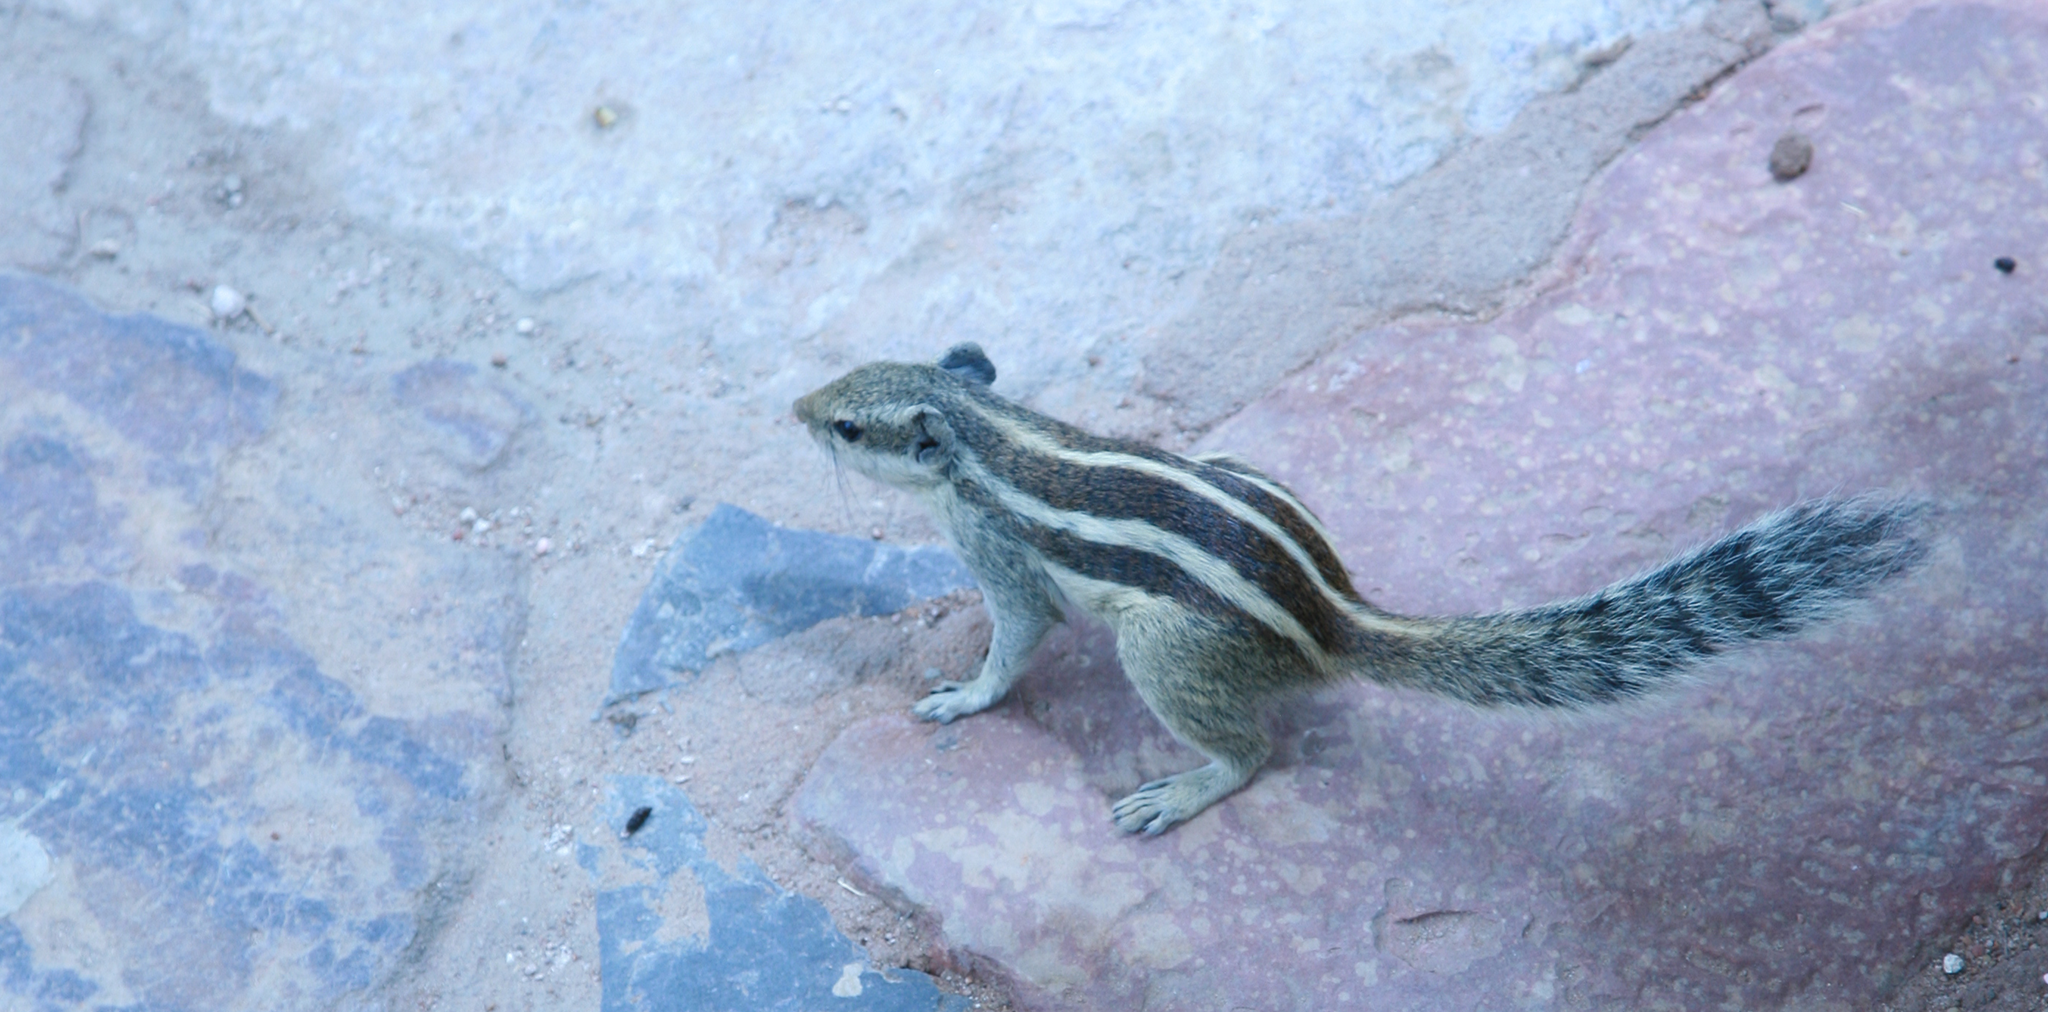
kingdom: Animalia
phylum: Chordata
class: Mammalia
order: Rodentia
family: Sciuridae
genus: Funambulus
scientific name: Funambulus pennantii
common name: Northern palm squirrel
